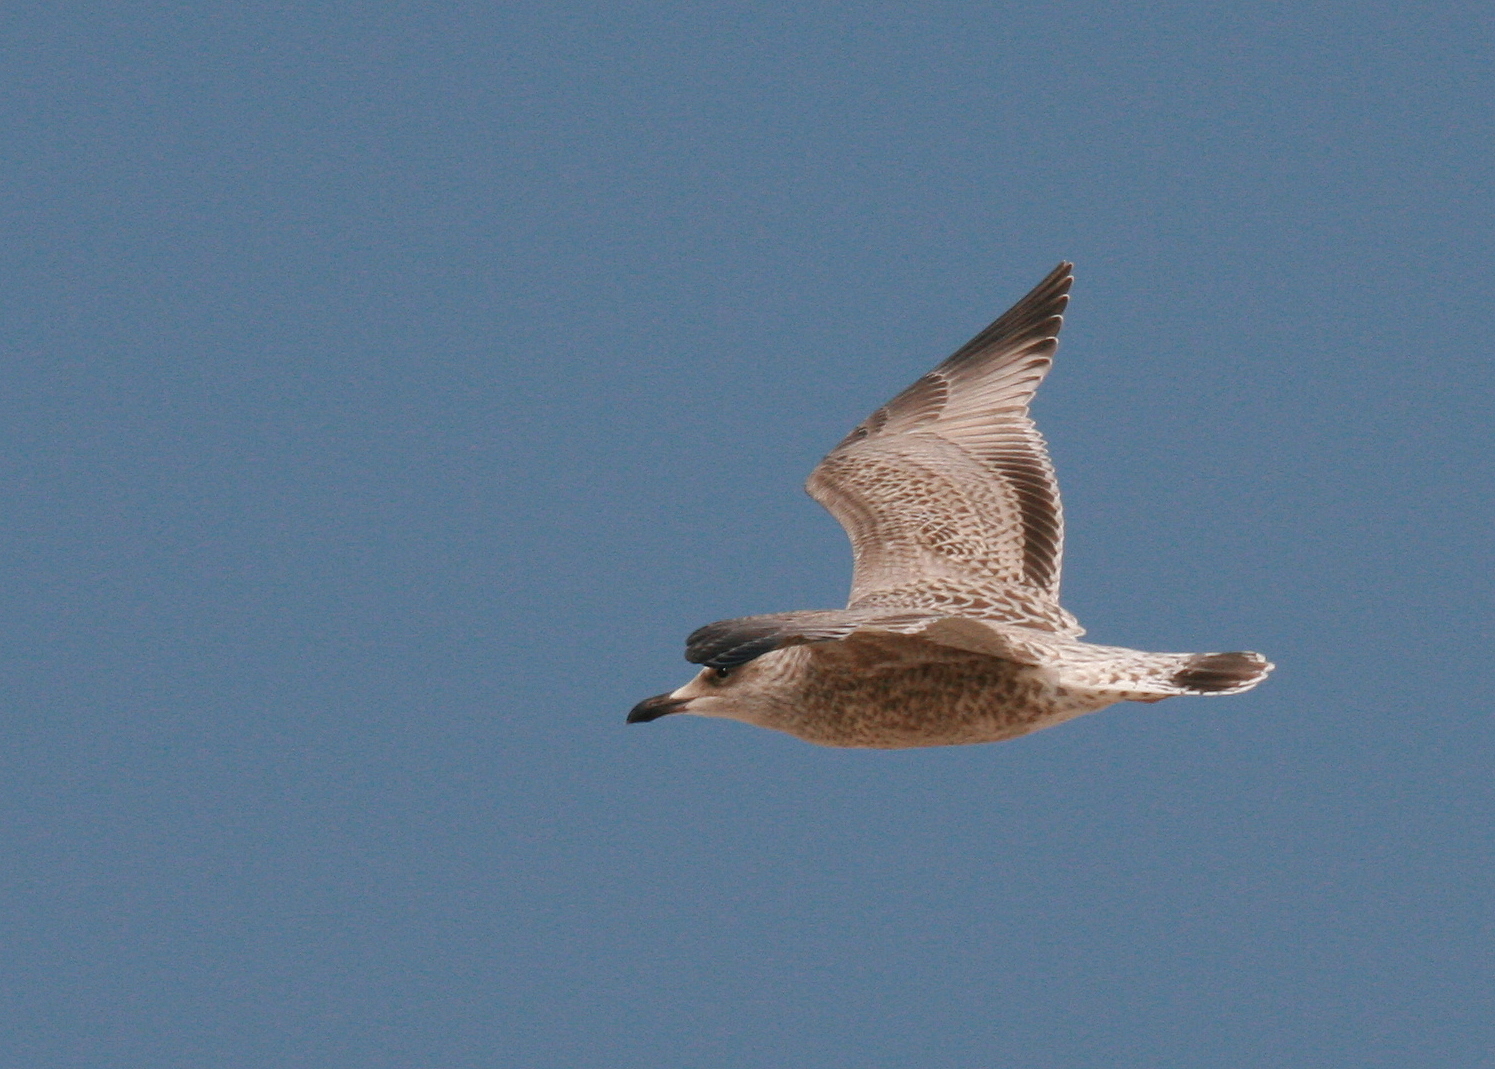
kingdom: Animalia
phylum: Chordata
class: Aves
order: Charadriiformes
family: Laridae
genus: Larus
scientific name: Larus argentatus
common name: Herring gull
